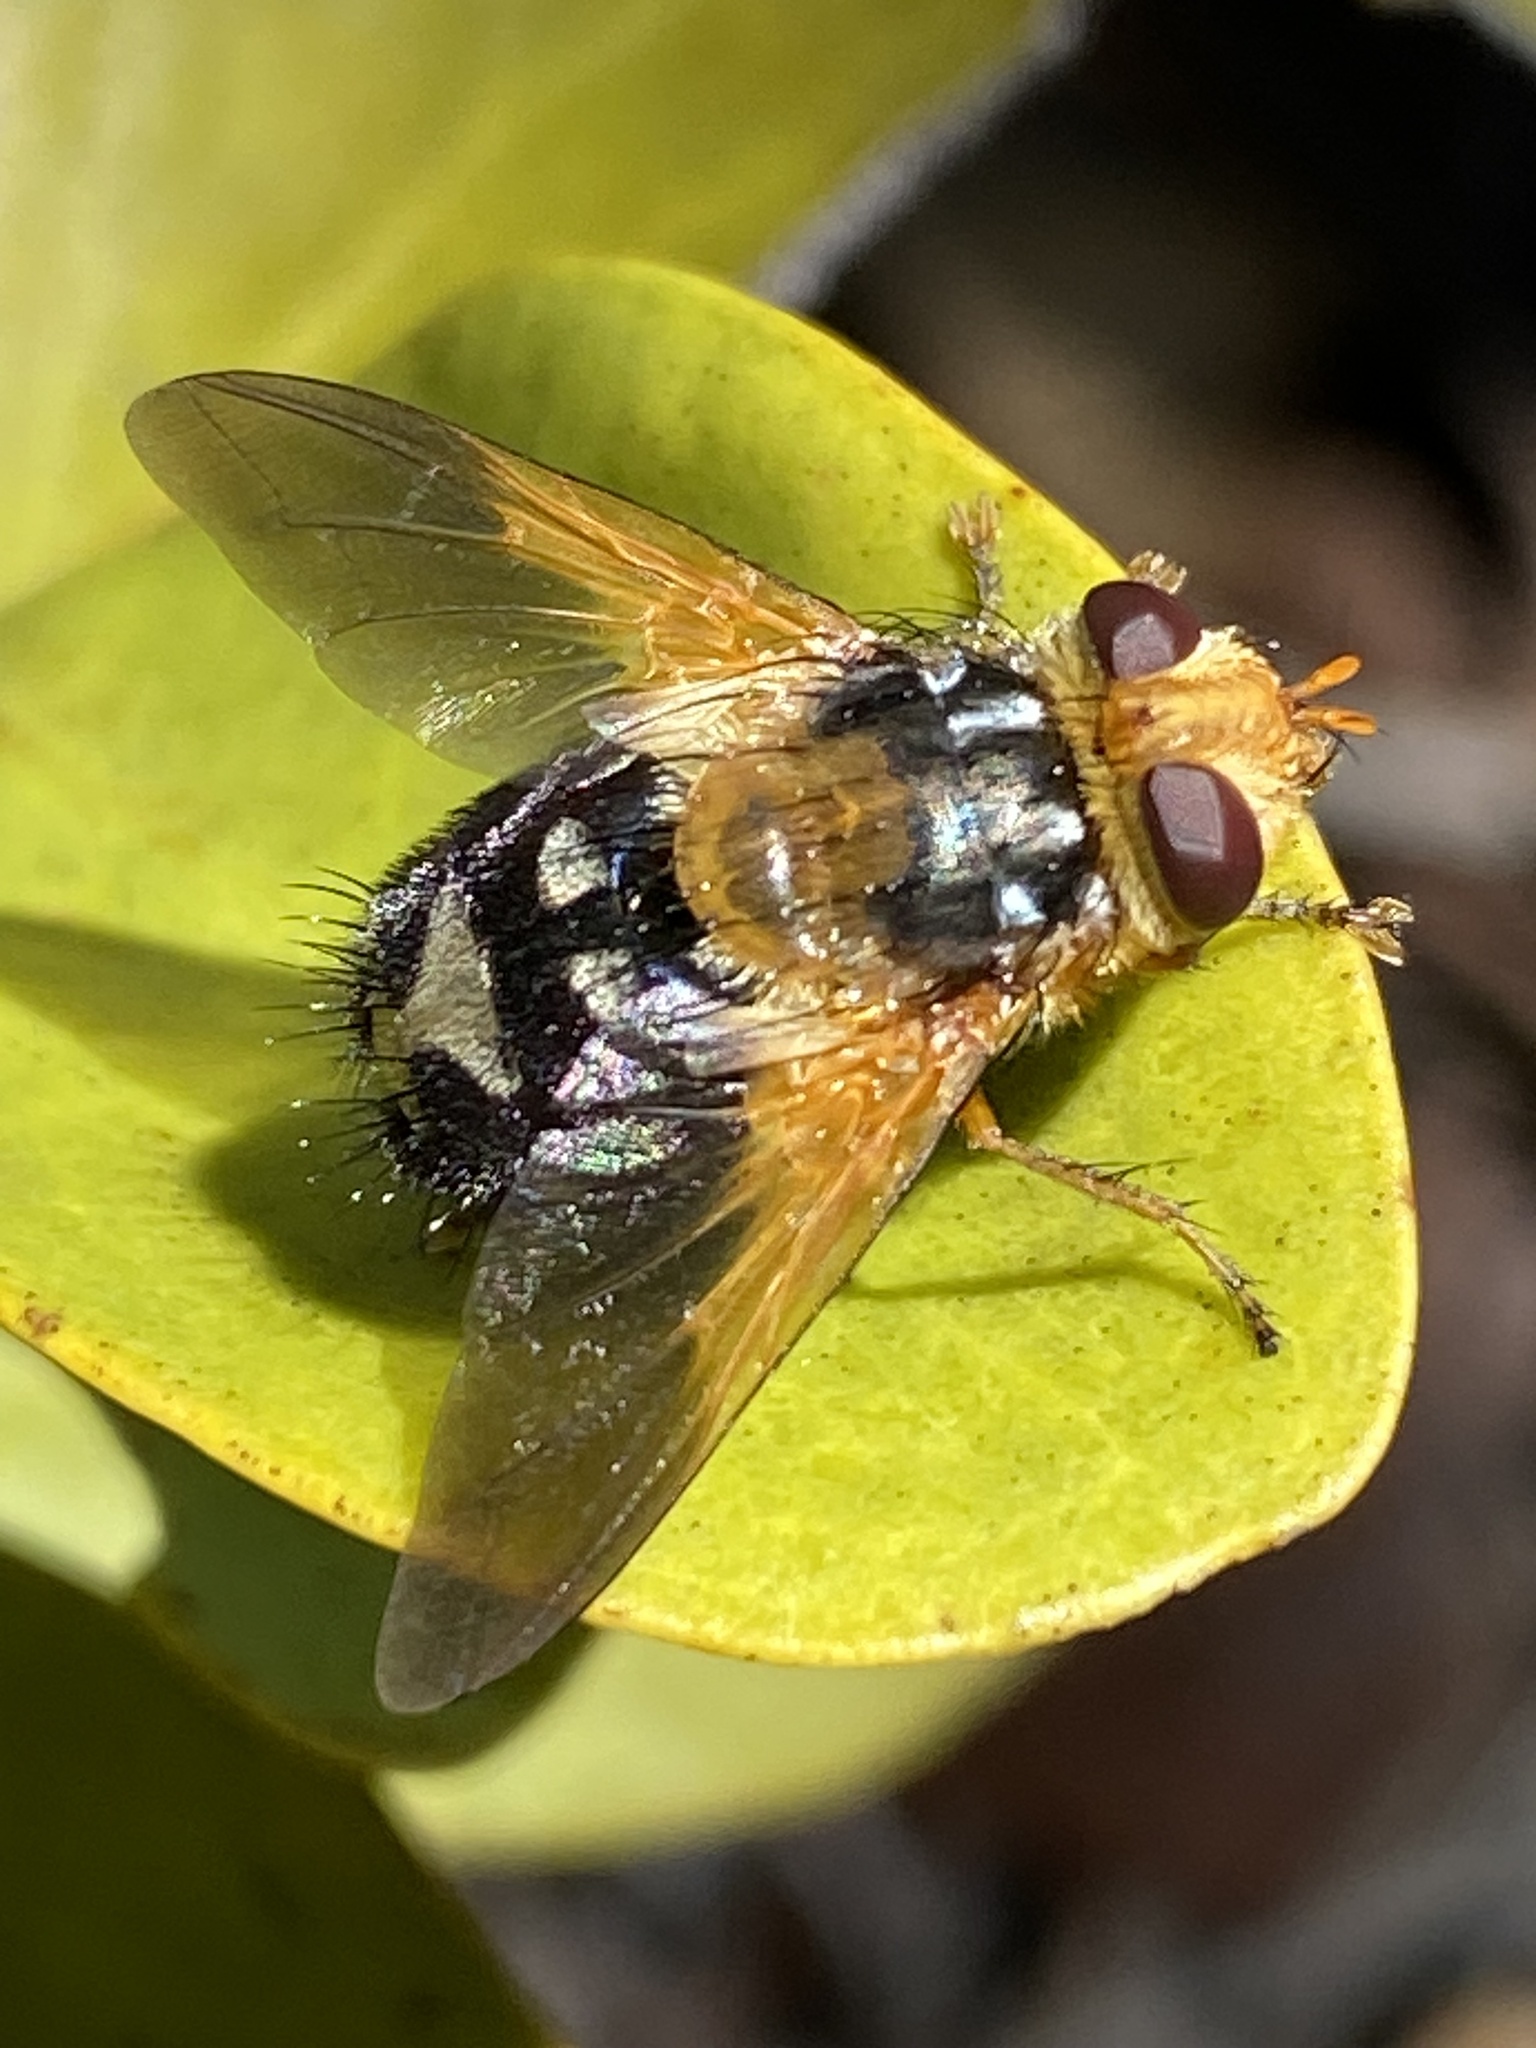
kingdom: Animalia
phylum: Arthropoda
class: Insecta
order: Diptera
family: Tachinidae
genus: Microtropesa
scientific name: Microtropesa sinuata
